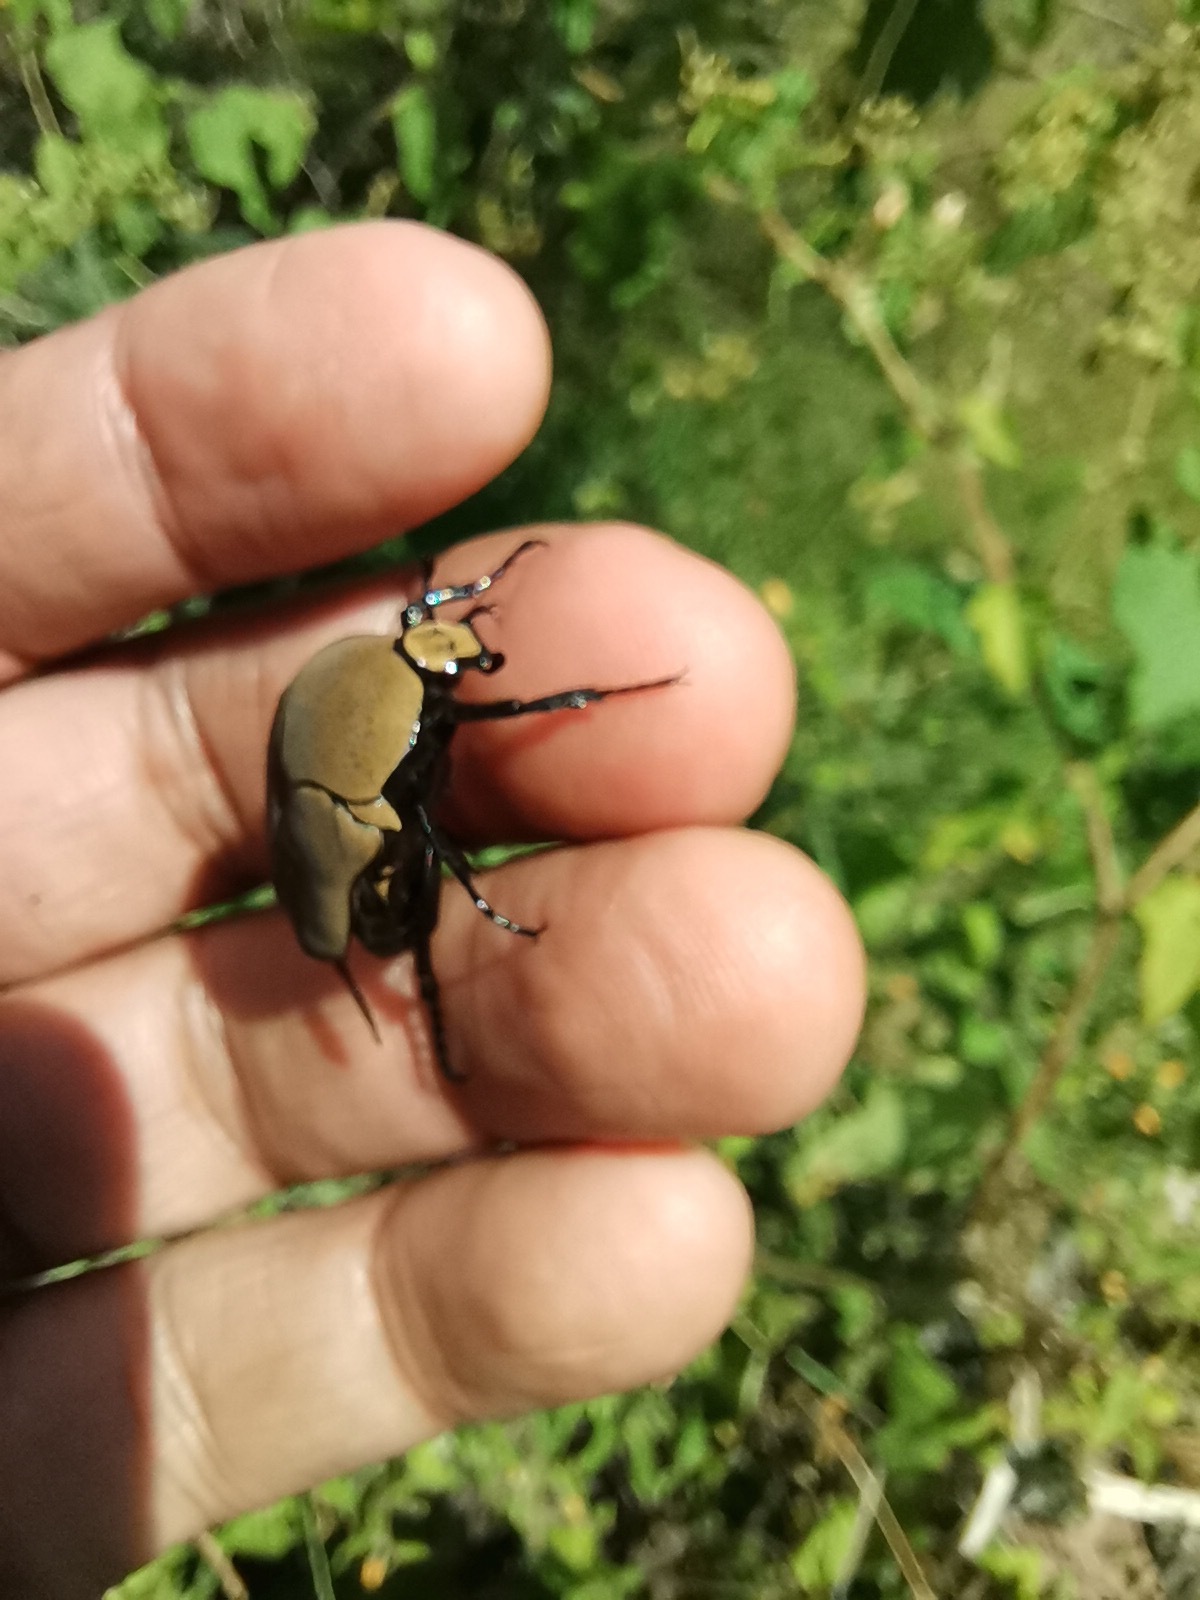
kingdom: Animalia
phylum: Arthropoda
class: Insecta
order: Coleoptera
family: Scarabaeidae
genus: Hologymnetis
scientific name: Hologymnetis cinerea
